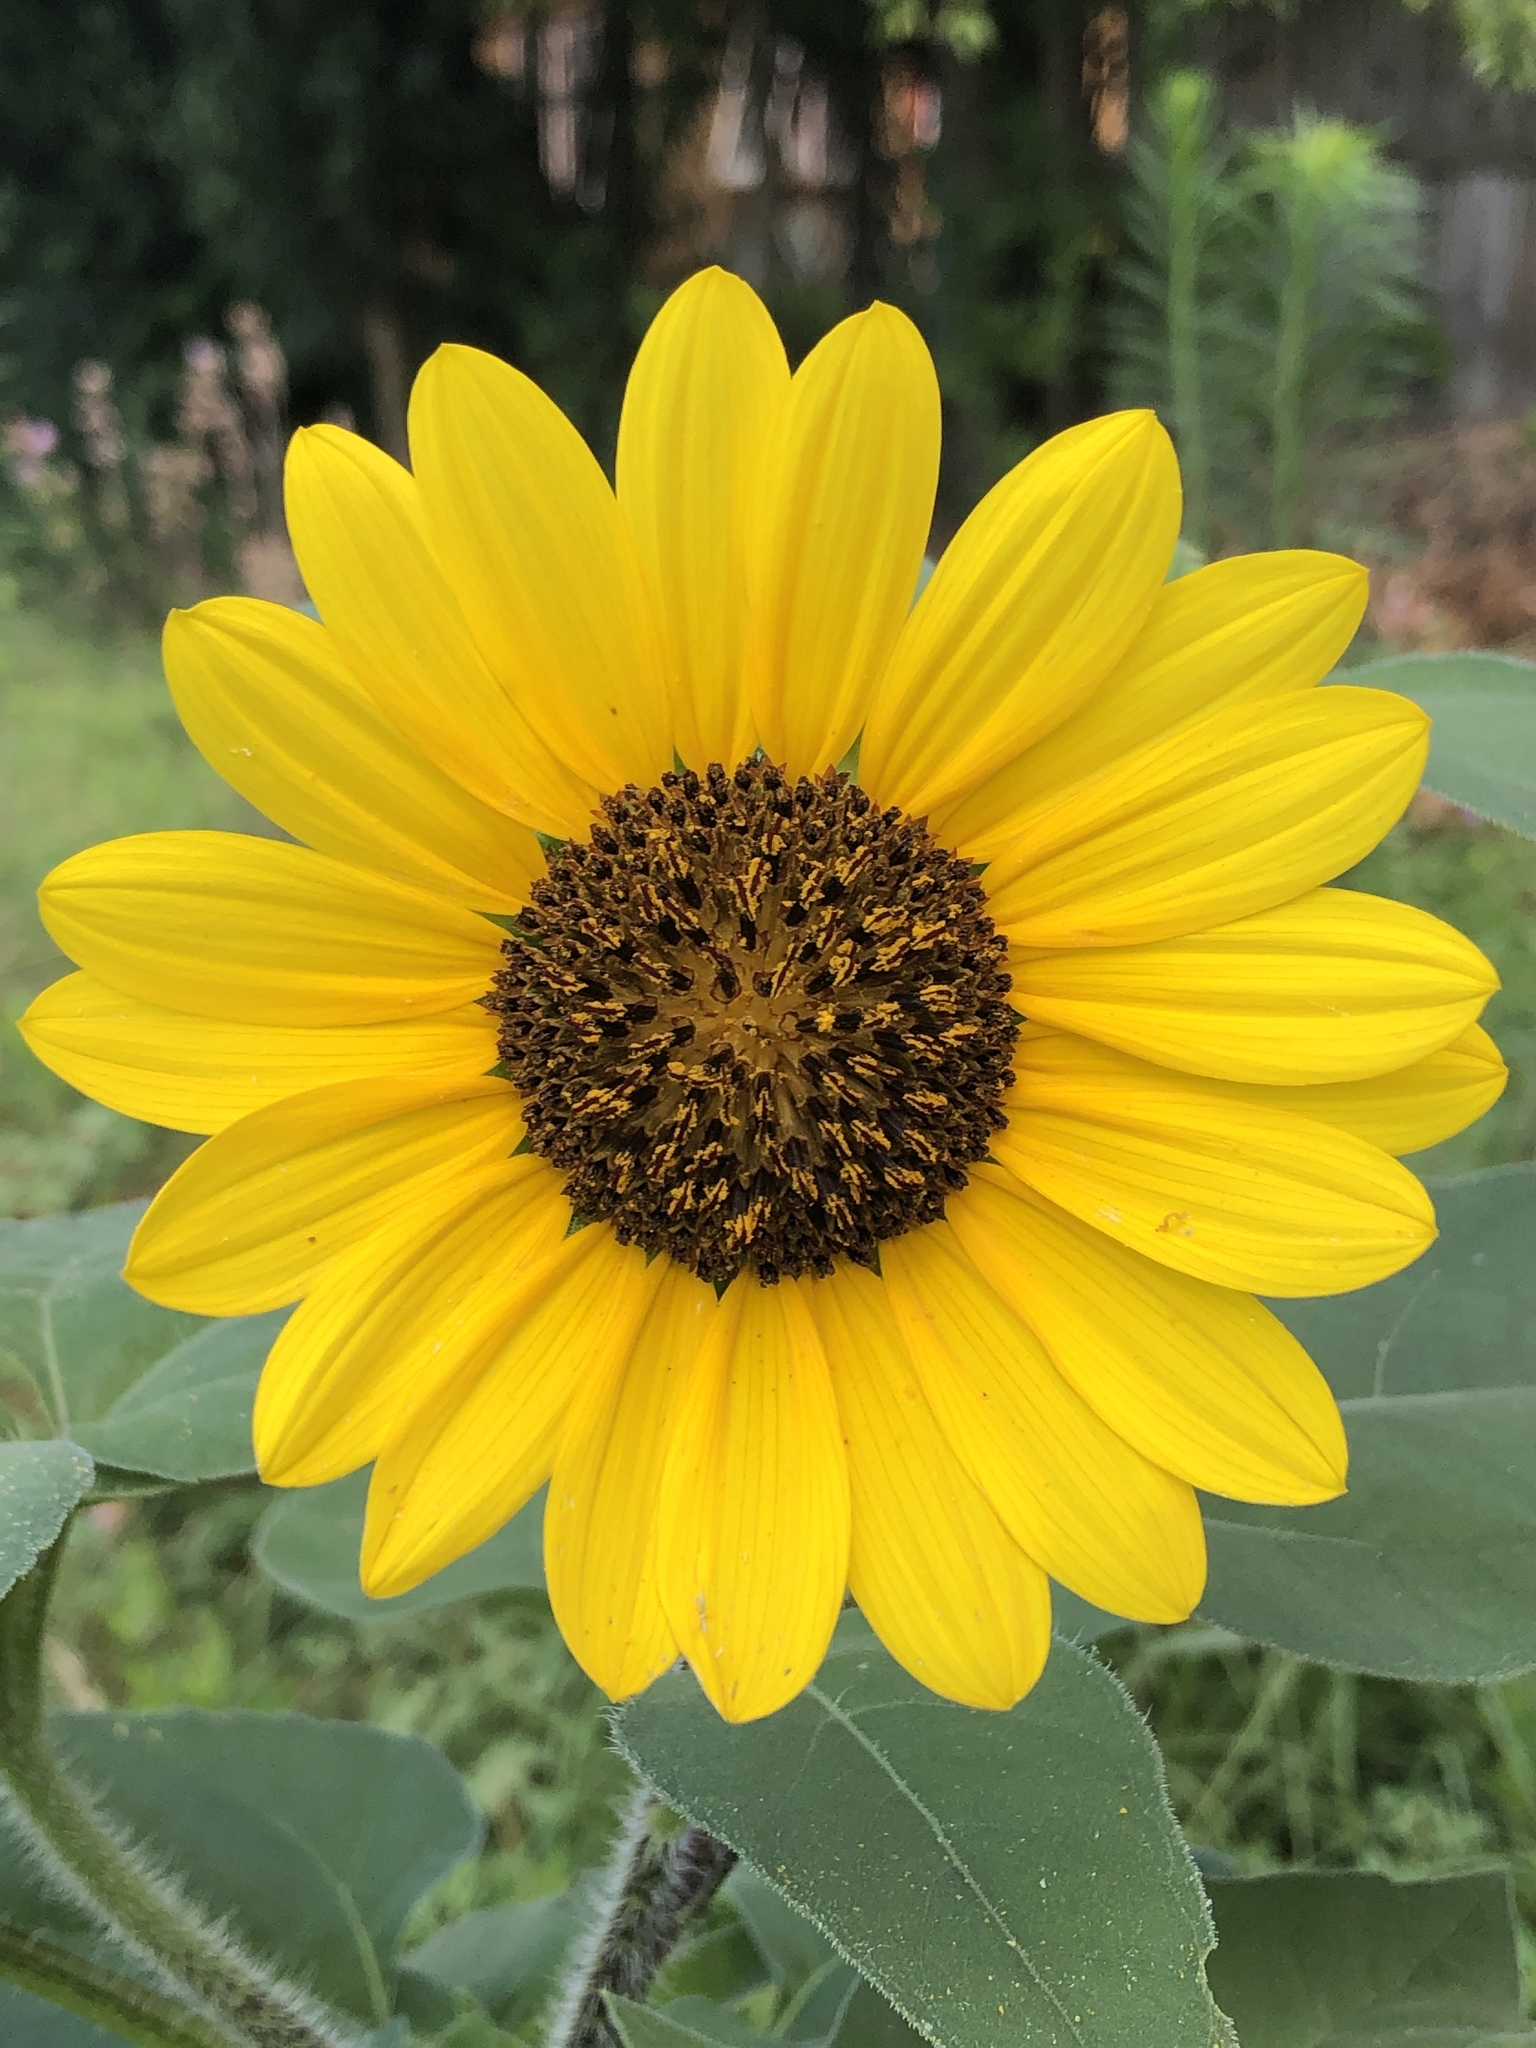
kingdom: Plantae
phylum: Tracheophyta
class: Magnoliopsida
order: Asterales
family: Asteraceae
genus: Helianthus
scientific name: Helianthus annuus
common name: Sunflower
